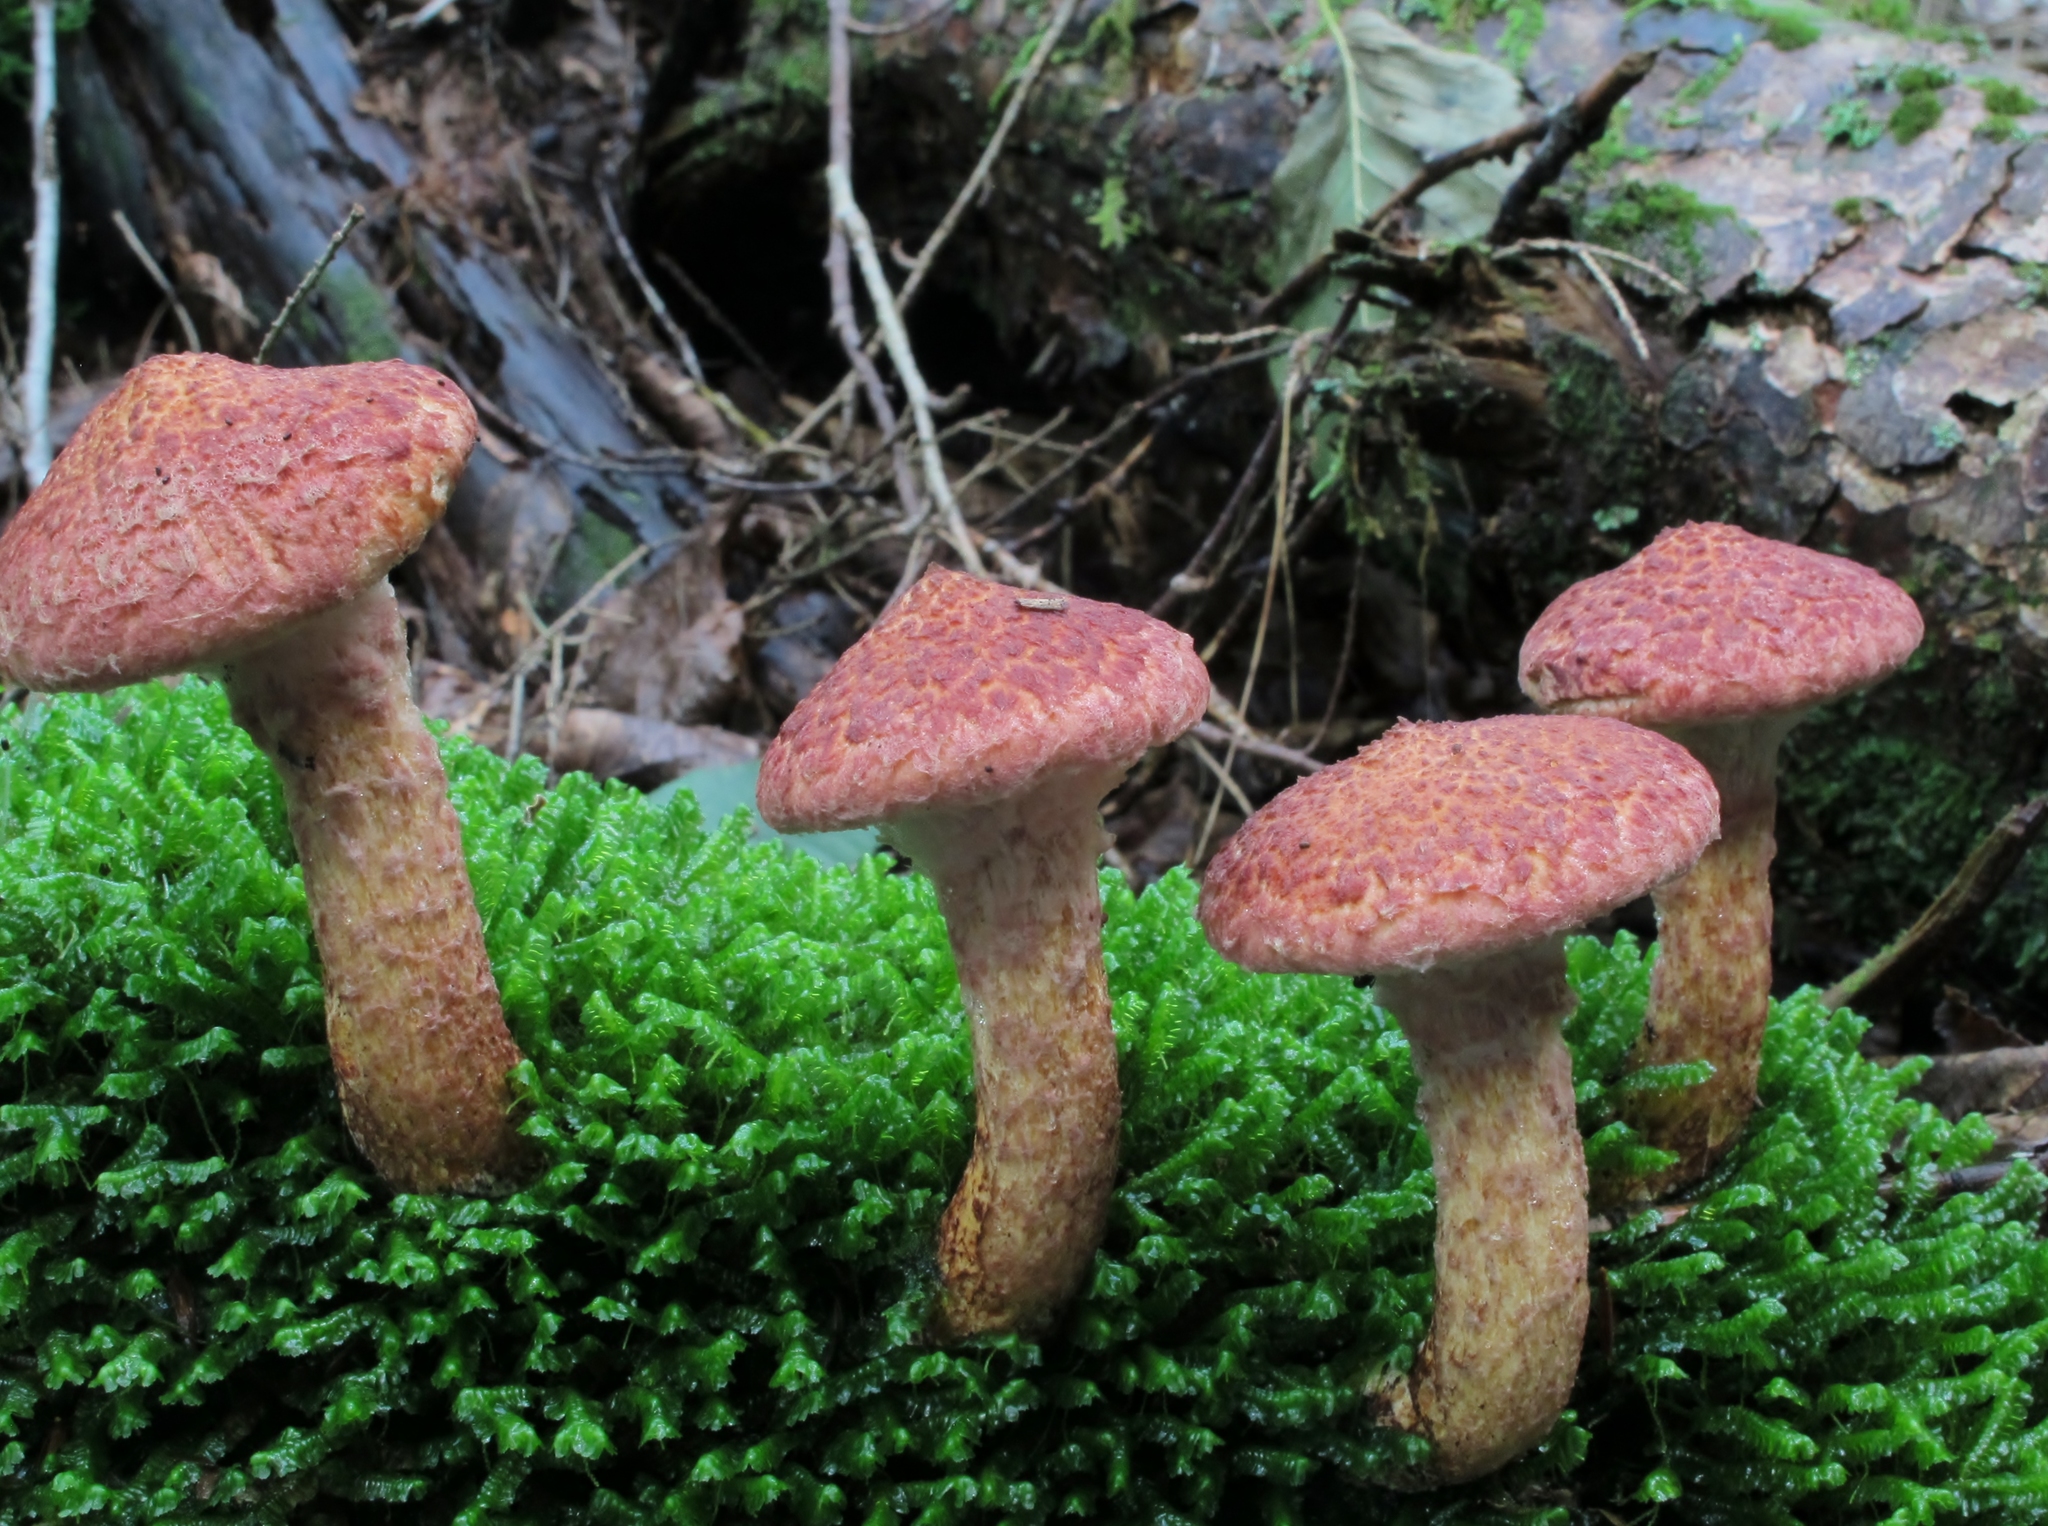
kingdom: Fungi
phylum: Basidiomycota
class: Agaricomycetes
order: Boletales
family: Suillaceae
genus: Suillus
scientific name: Suillus spraguei
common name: Painted suillus
